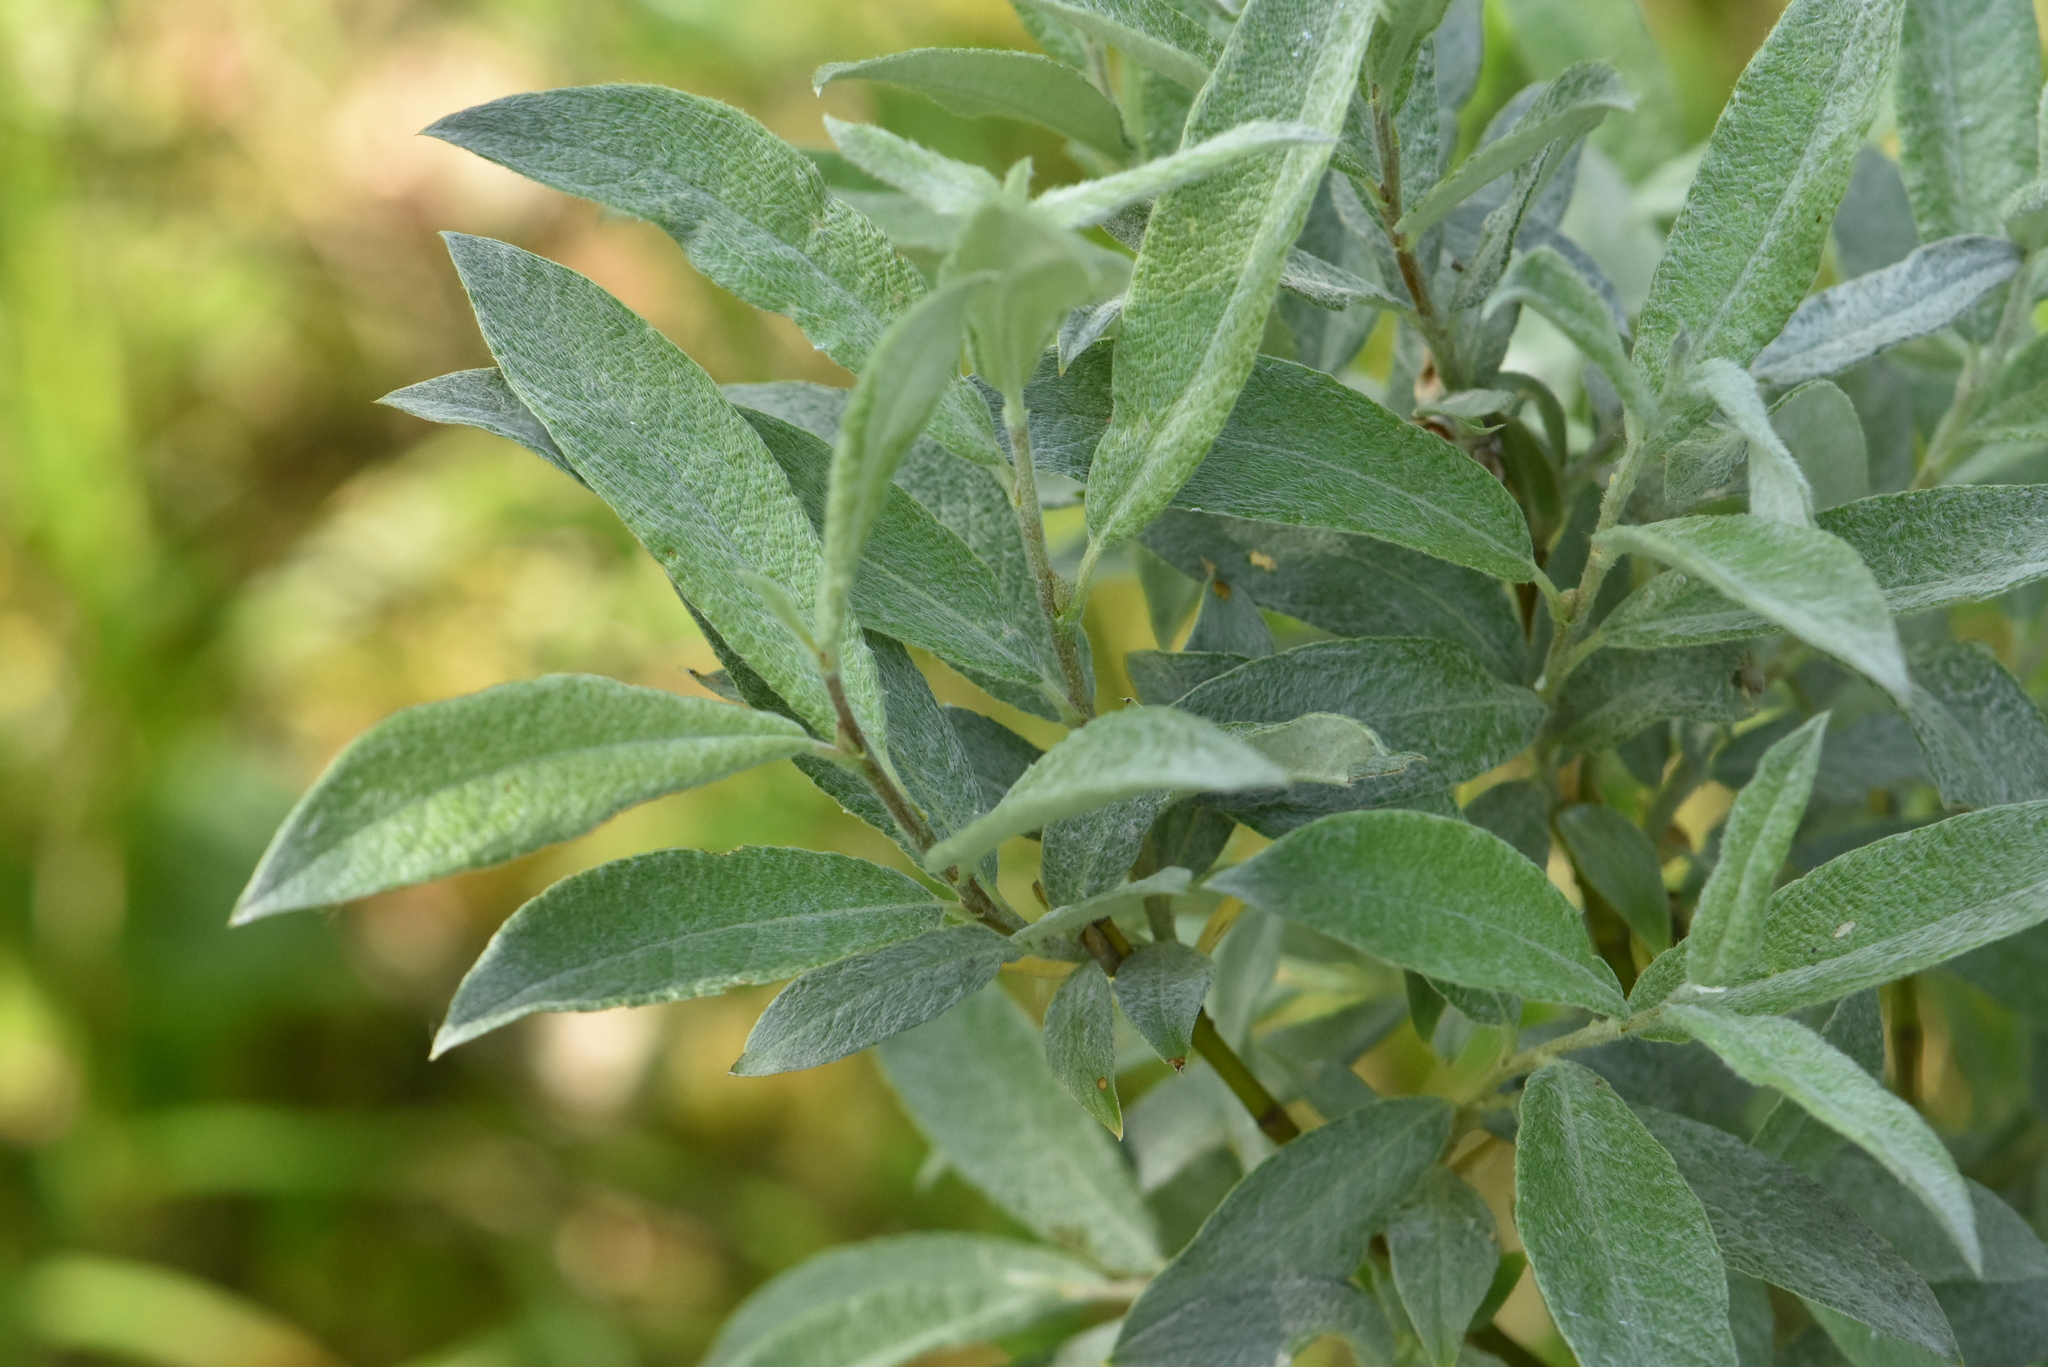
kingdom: Plantae
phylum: Tracheophyta
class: Magnoliopsida
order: Malpighiales
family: Salicaceae
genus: Salix
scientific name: Salix lapponum
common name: Downy willow
